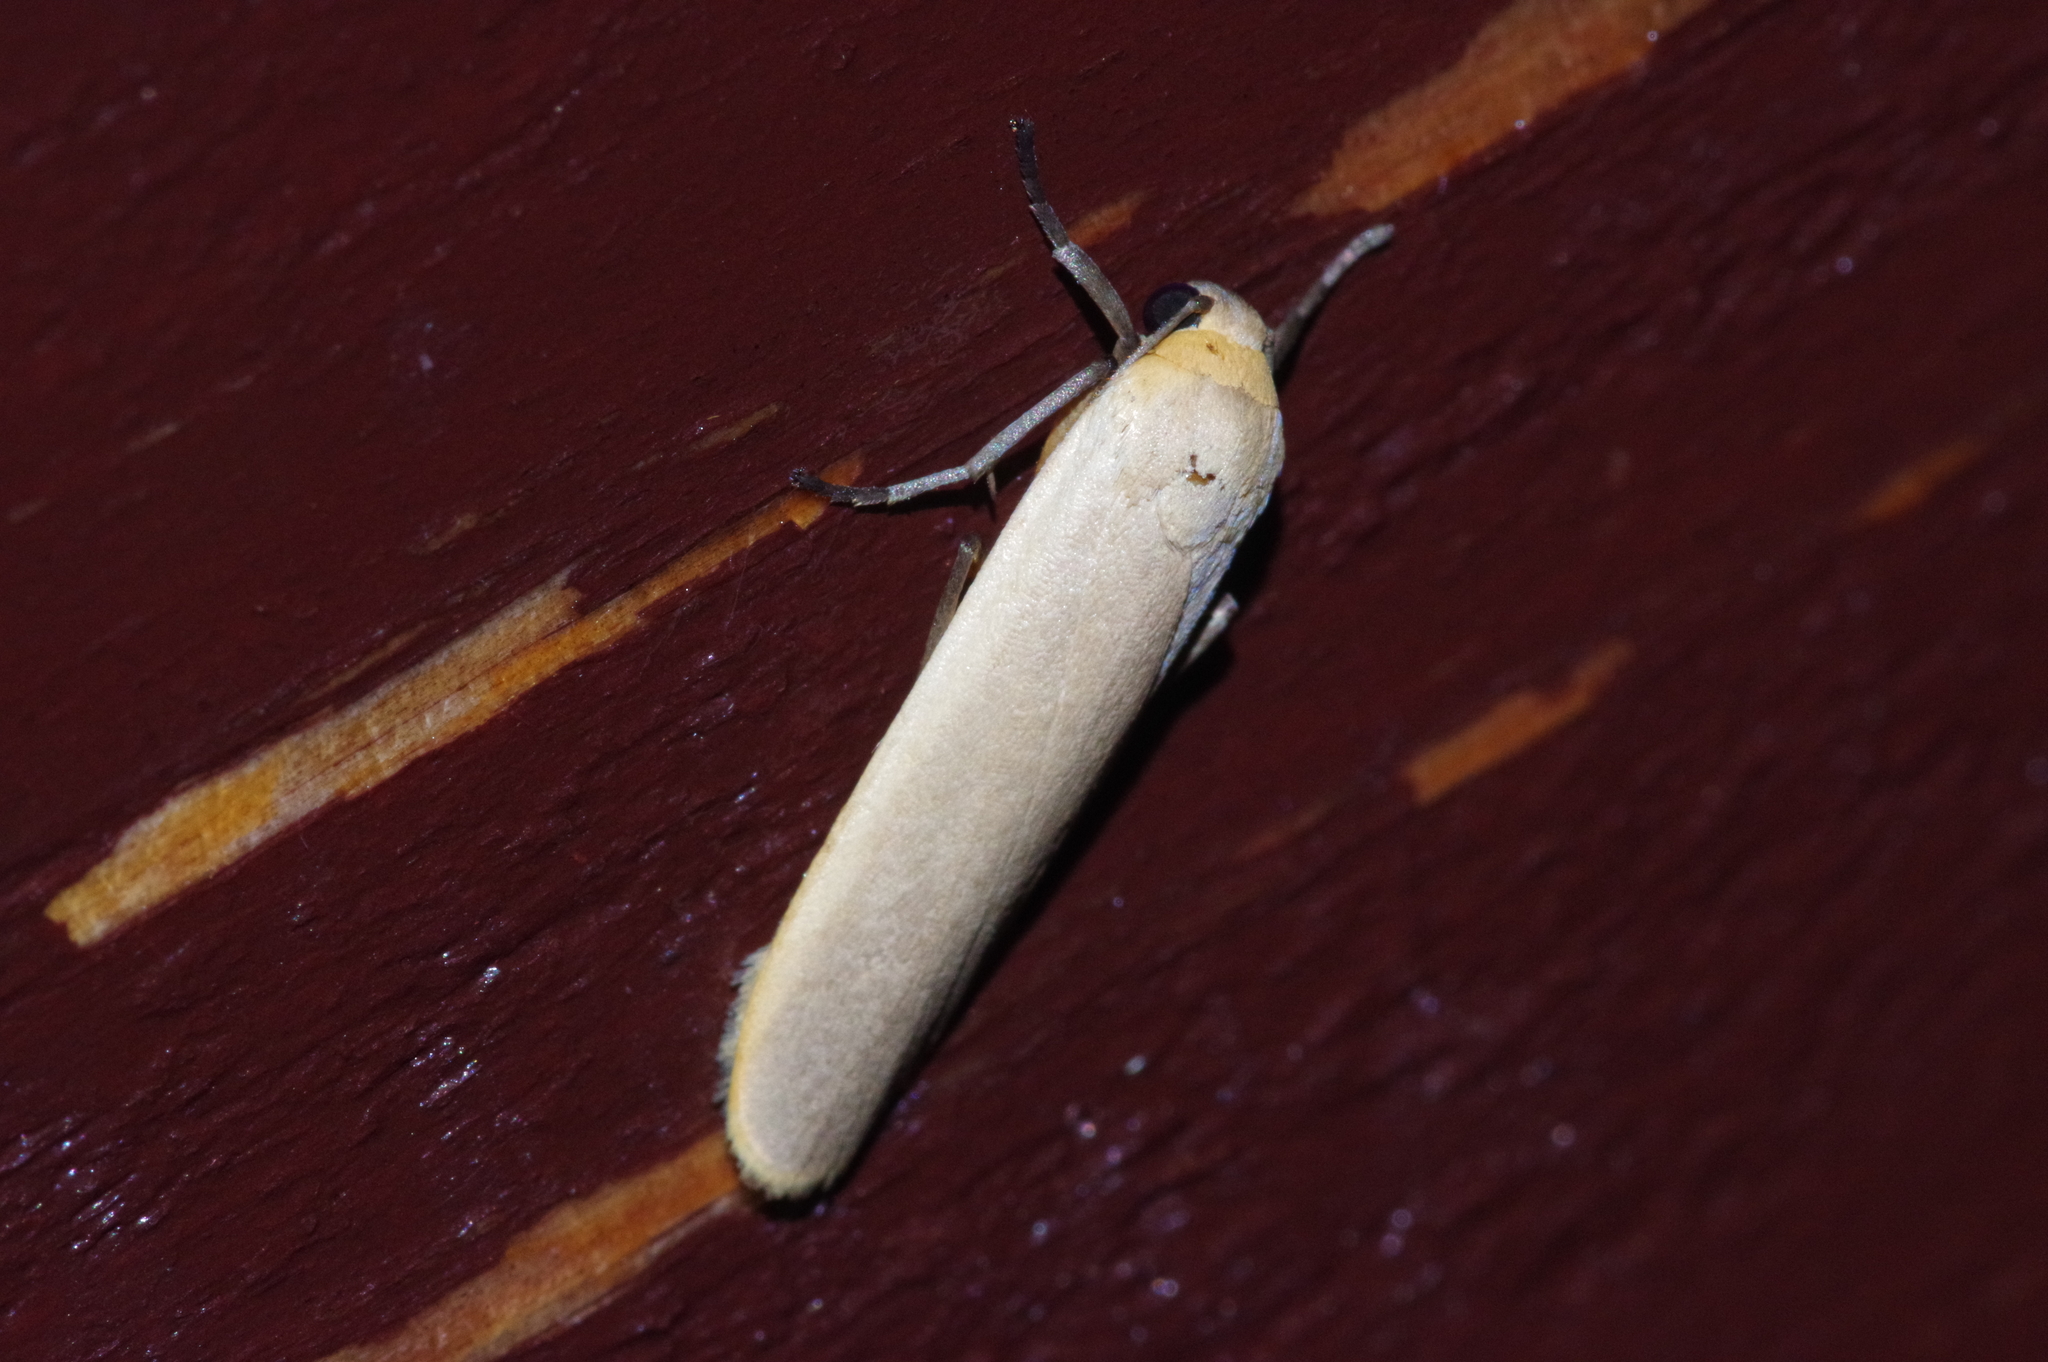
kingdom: Animalia
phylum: Arthropoda
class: Insecta
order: Lepidoptera
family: Erebidae
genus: Brunia
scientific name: Brunia antica
